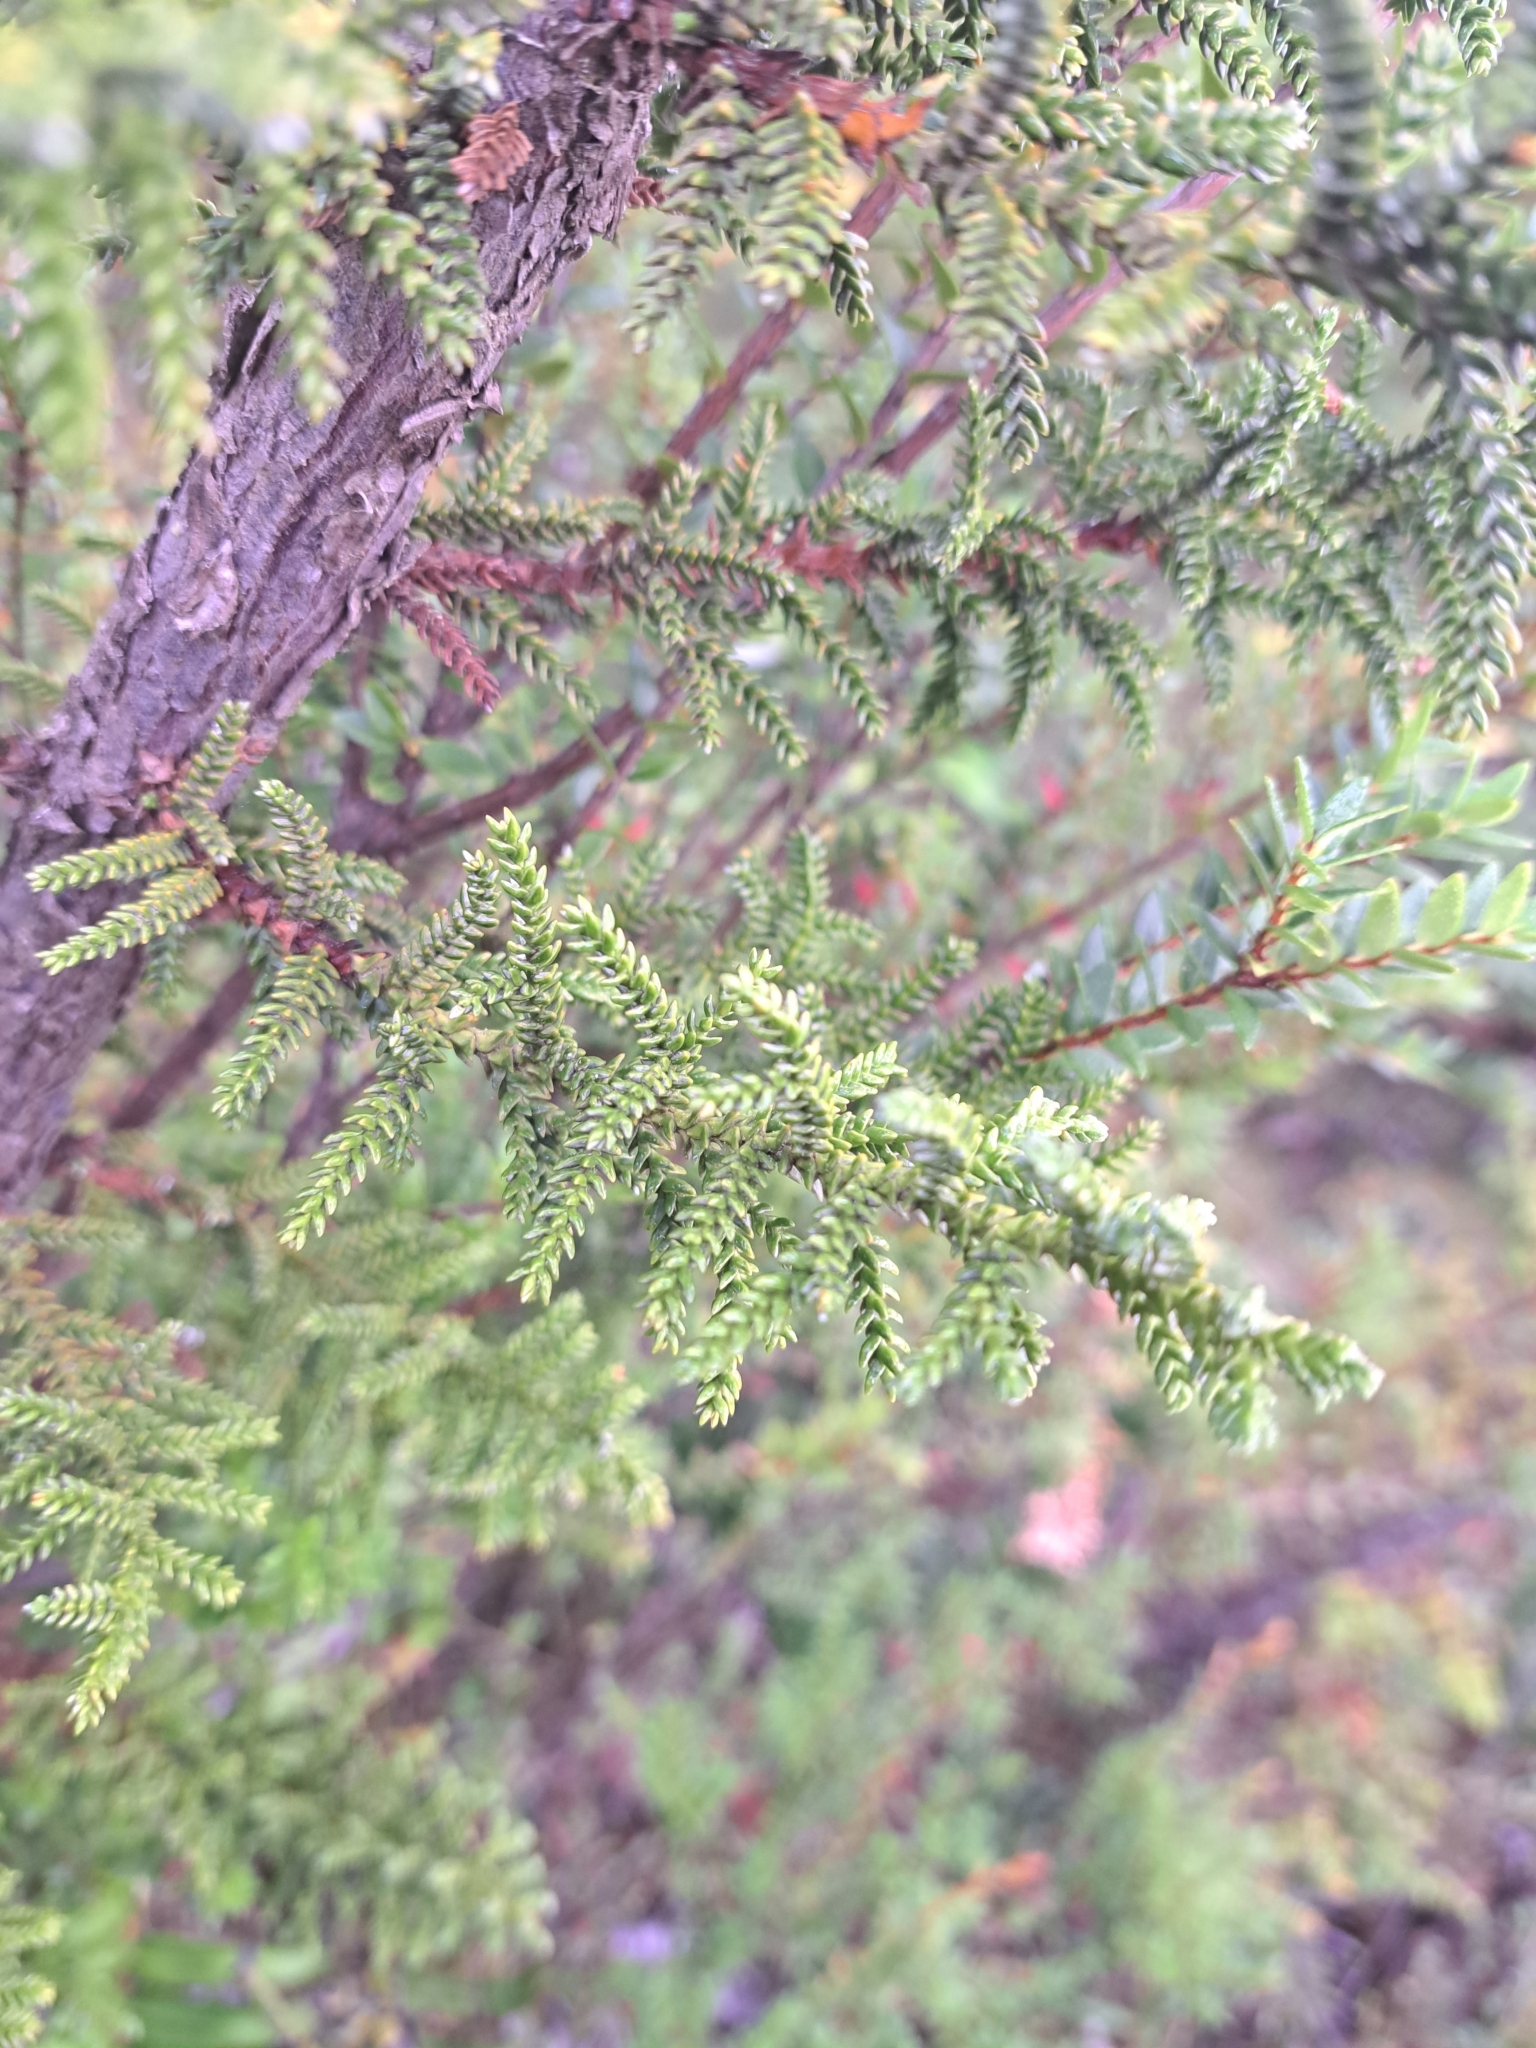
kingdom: Plantae
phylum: Tracheophyta
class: Pinopsida
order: Pinales
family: Cupressaceae
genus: Pilgerodendron
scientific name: Pilgerodendron uviferum
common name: Guaitecas cypress
